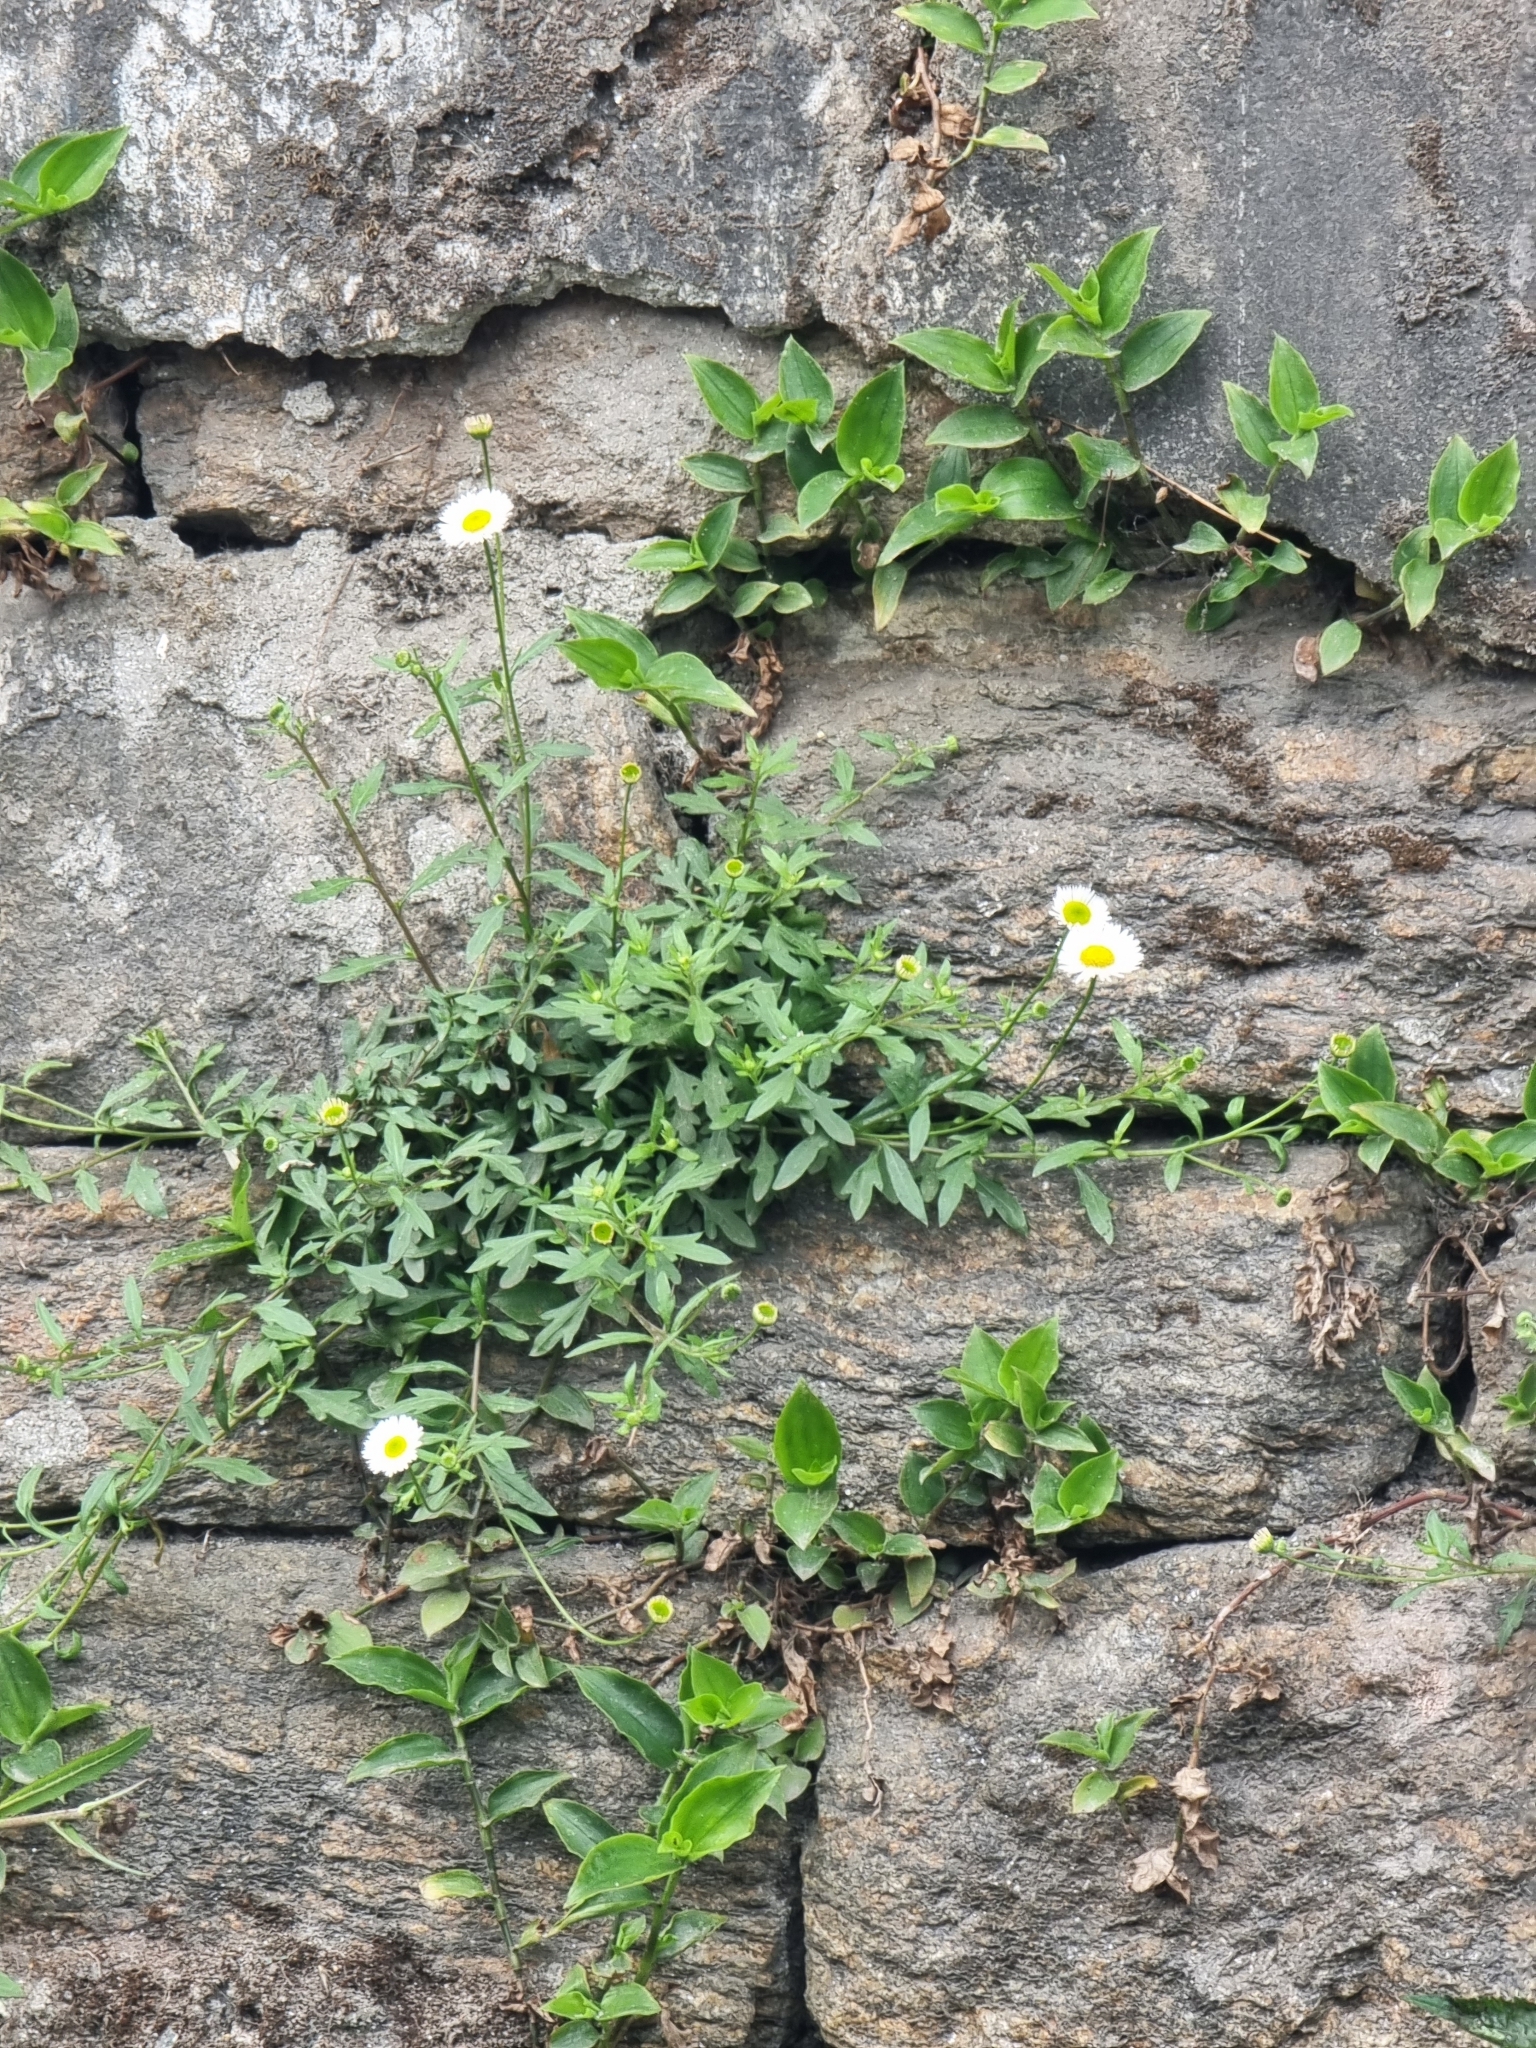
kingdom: Plantae
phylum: Tracheophyta
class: Magnoliopsida
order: Asterales
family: Asteraceae
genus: Erigeron
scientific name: Erigeron karvinskianus
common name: Mexican fleabane
